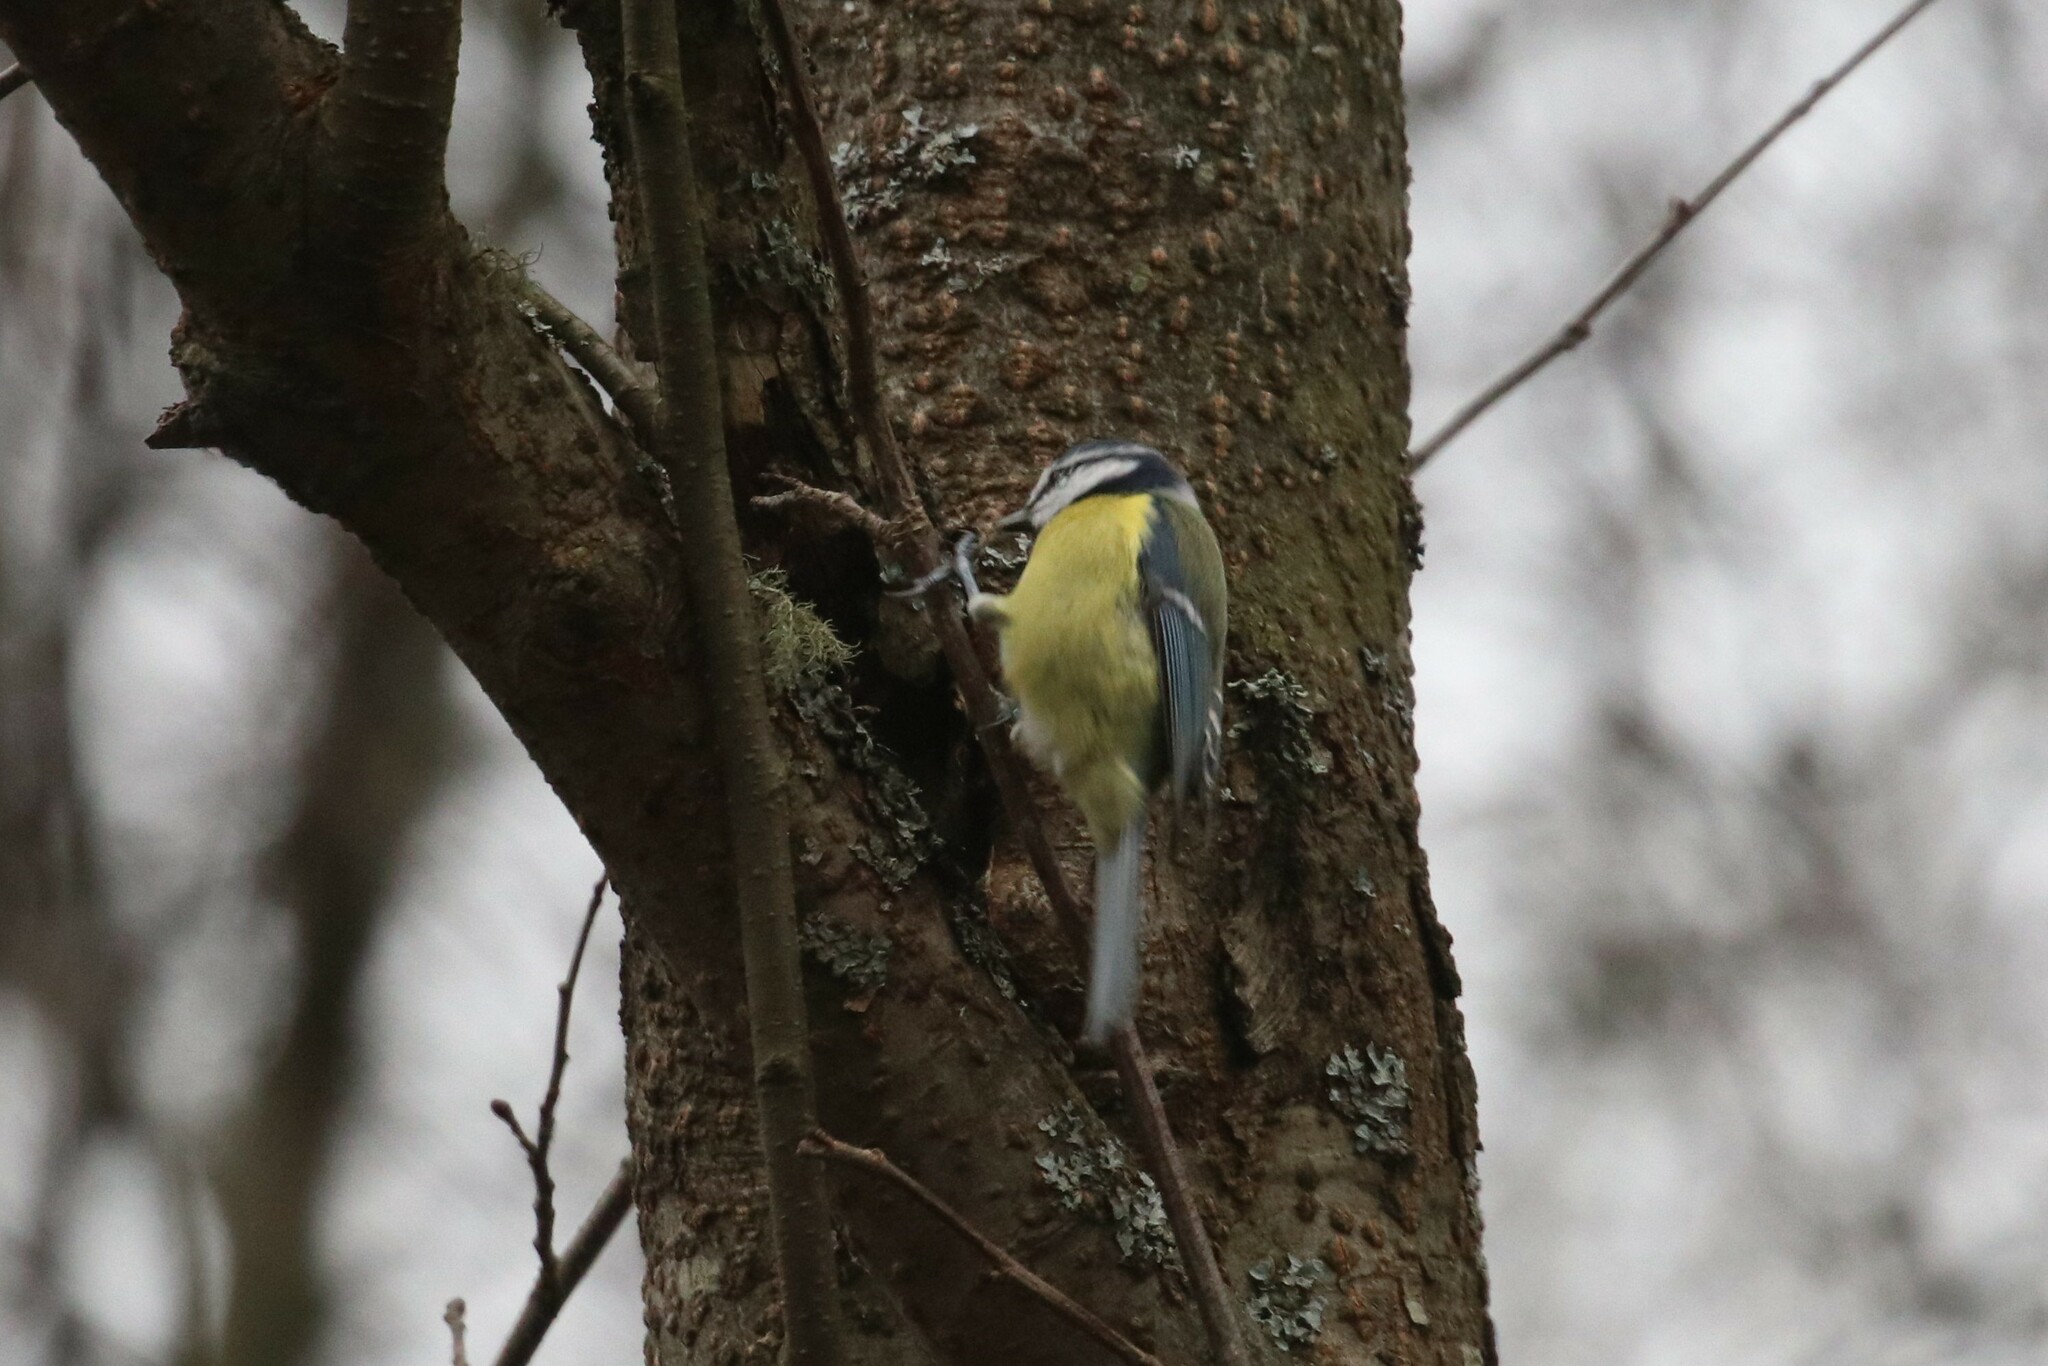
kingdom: Animalia
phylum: Chordata
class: Aves
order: Passeriformes
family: Paridae
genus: Cyanistes
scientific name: Cyanistes caeruleus
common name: Eurasian blue tit
